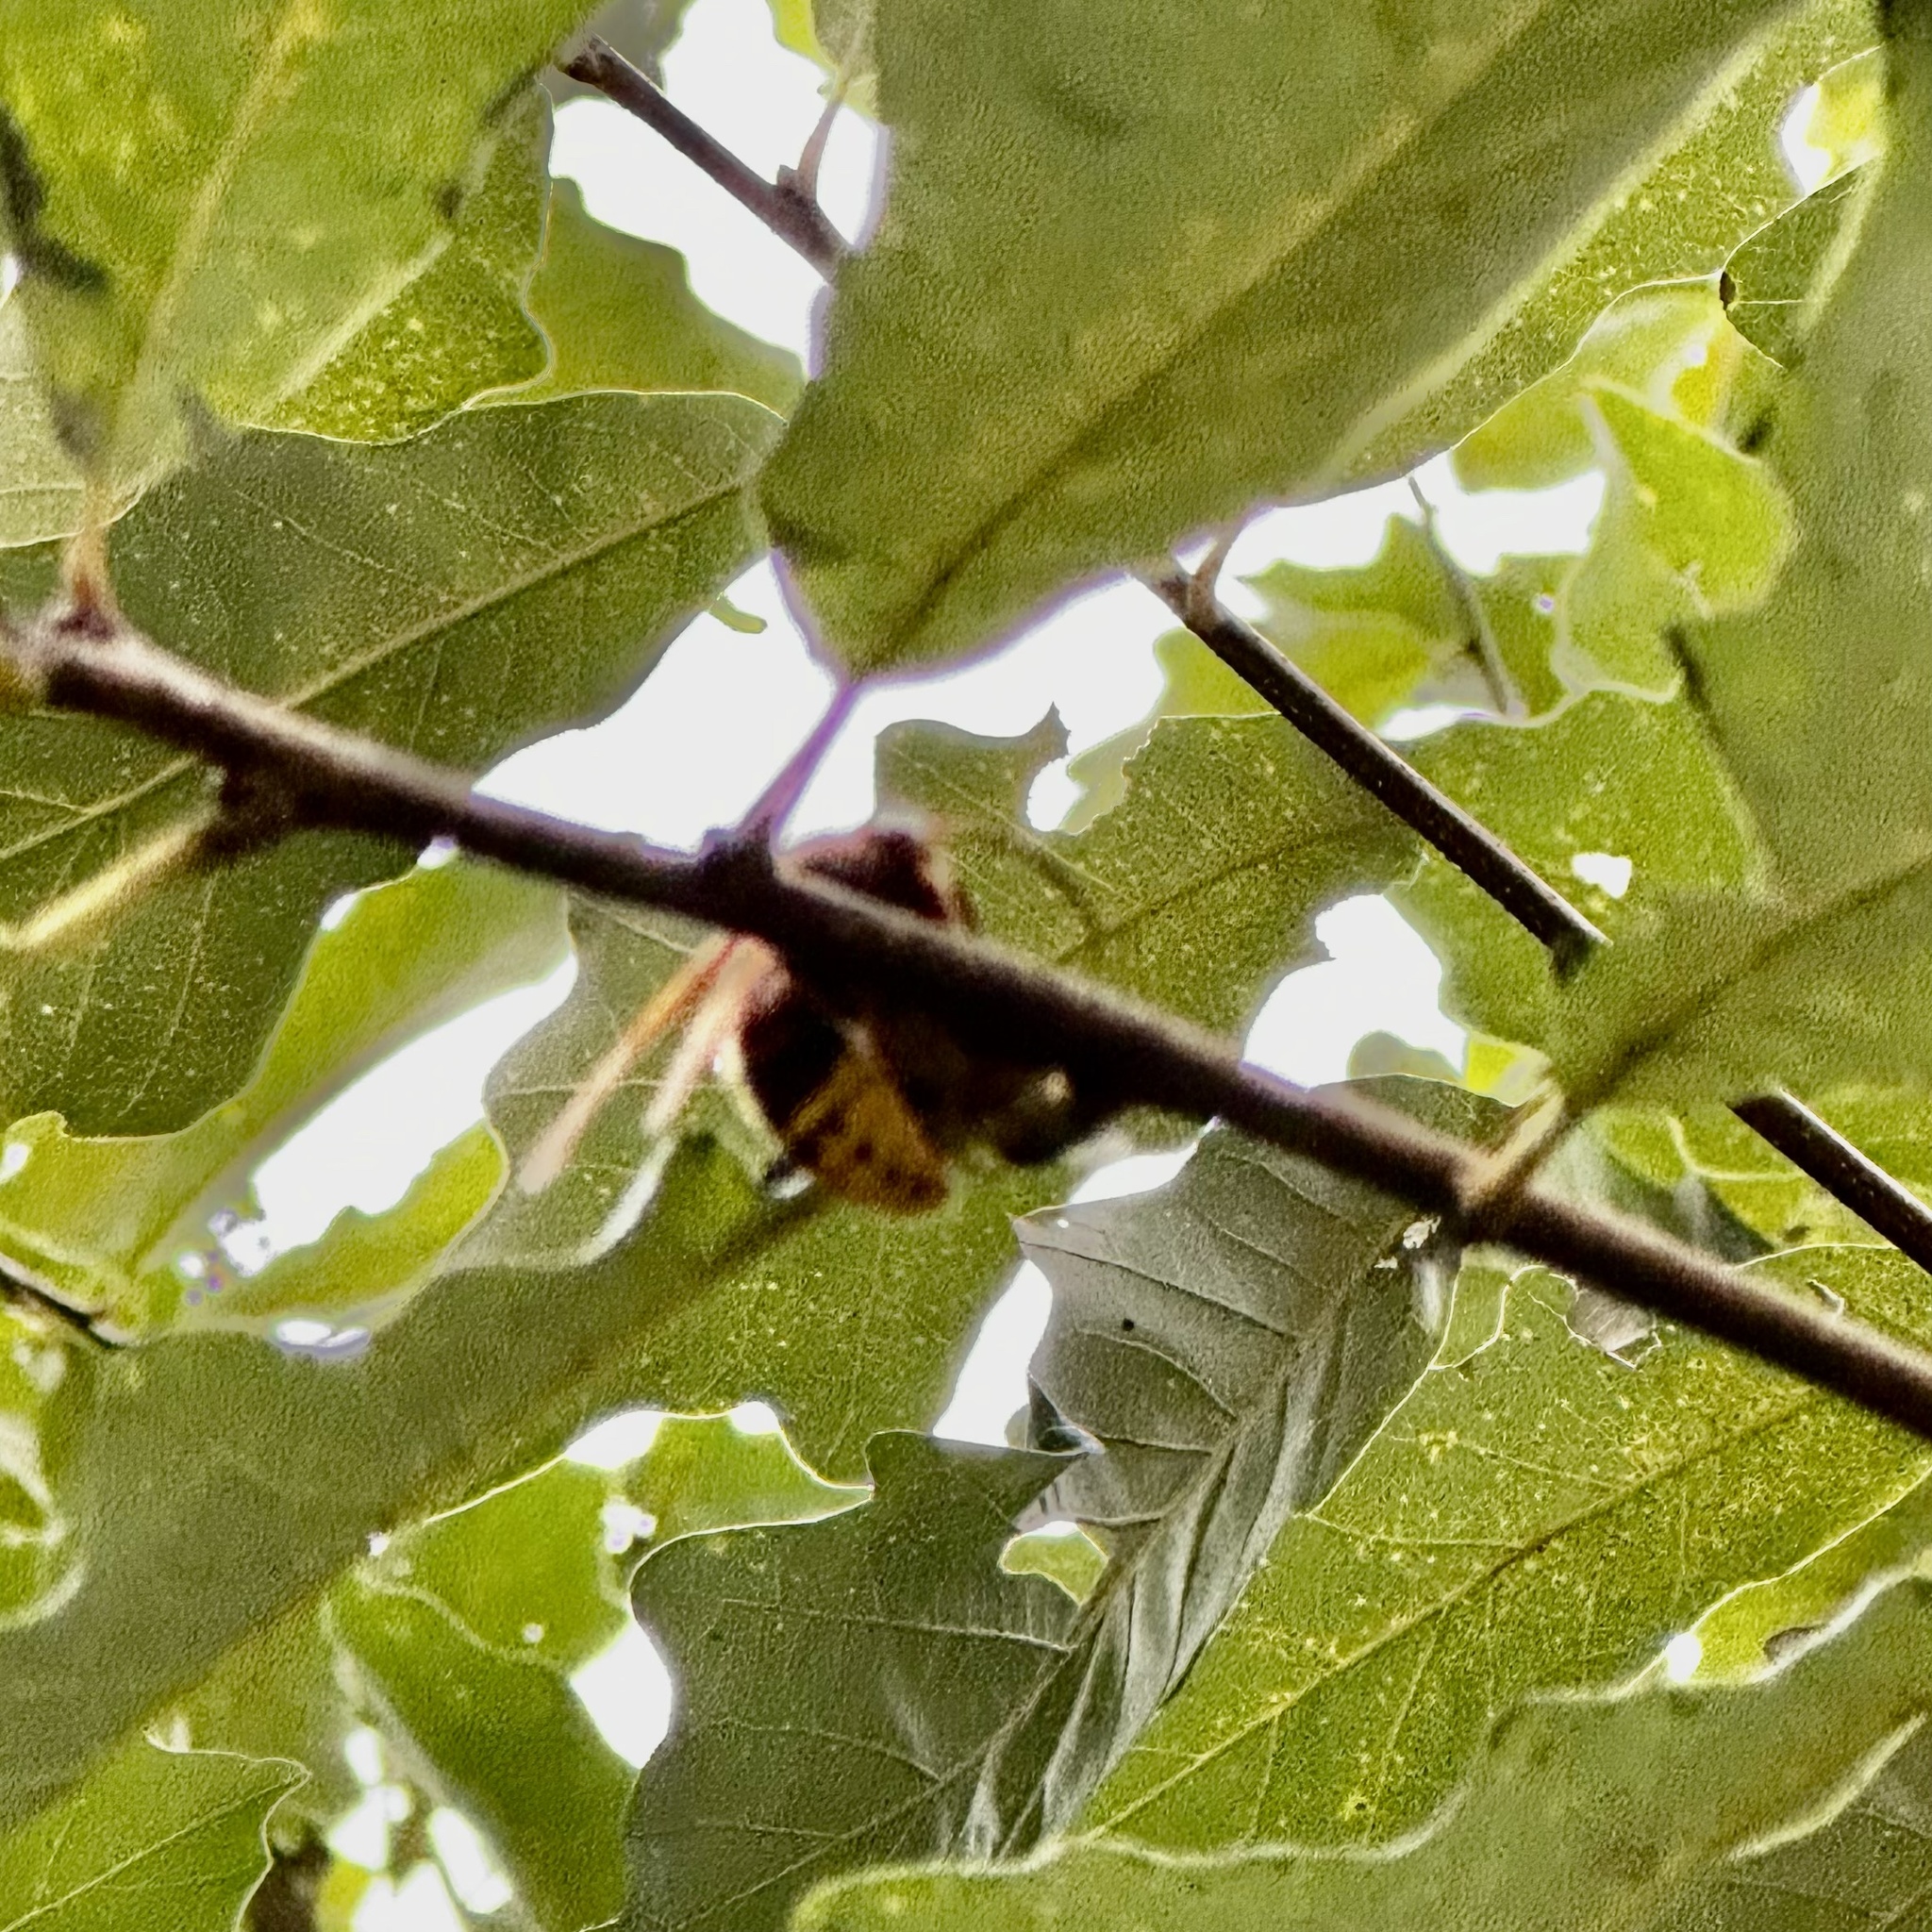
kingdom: Animalia
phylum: Arthropoda
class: Insecta
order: Hymenoptera
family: Vespidae
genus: Vespa
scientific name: Vespa crabro
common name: Hornet
